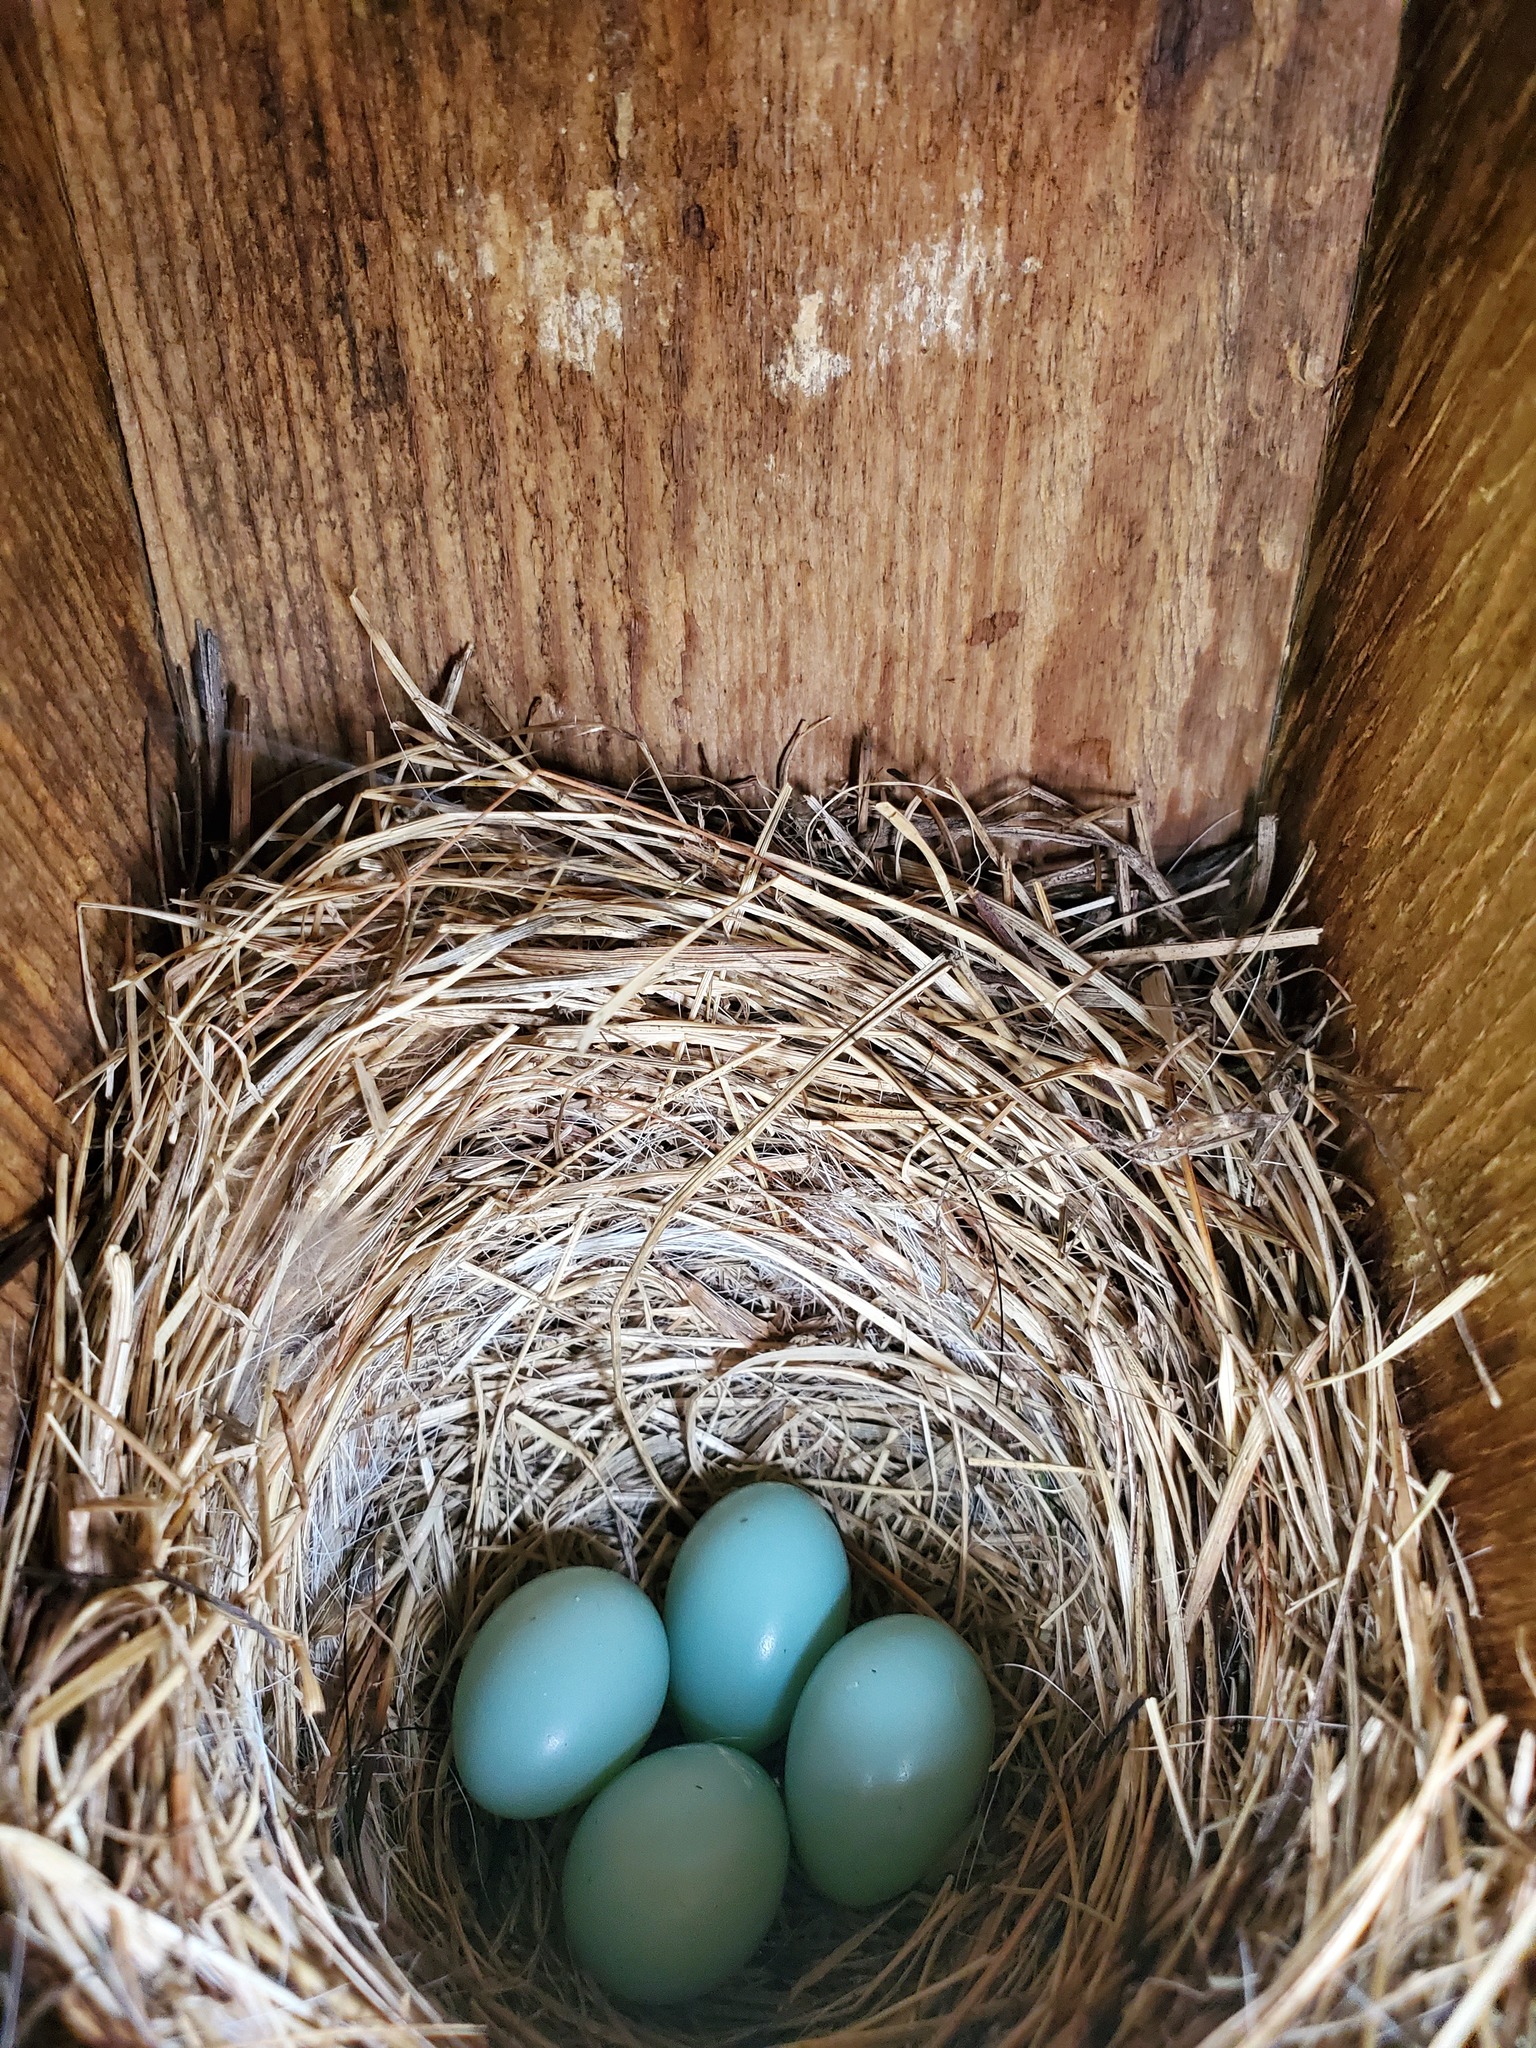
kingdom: Animalia
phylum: Chordata
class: Aves
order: Passeriformes
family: Turdidae
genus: Sialia
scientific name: Sialia sialis
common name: Eastern bluebird
